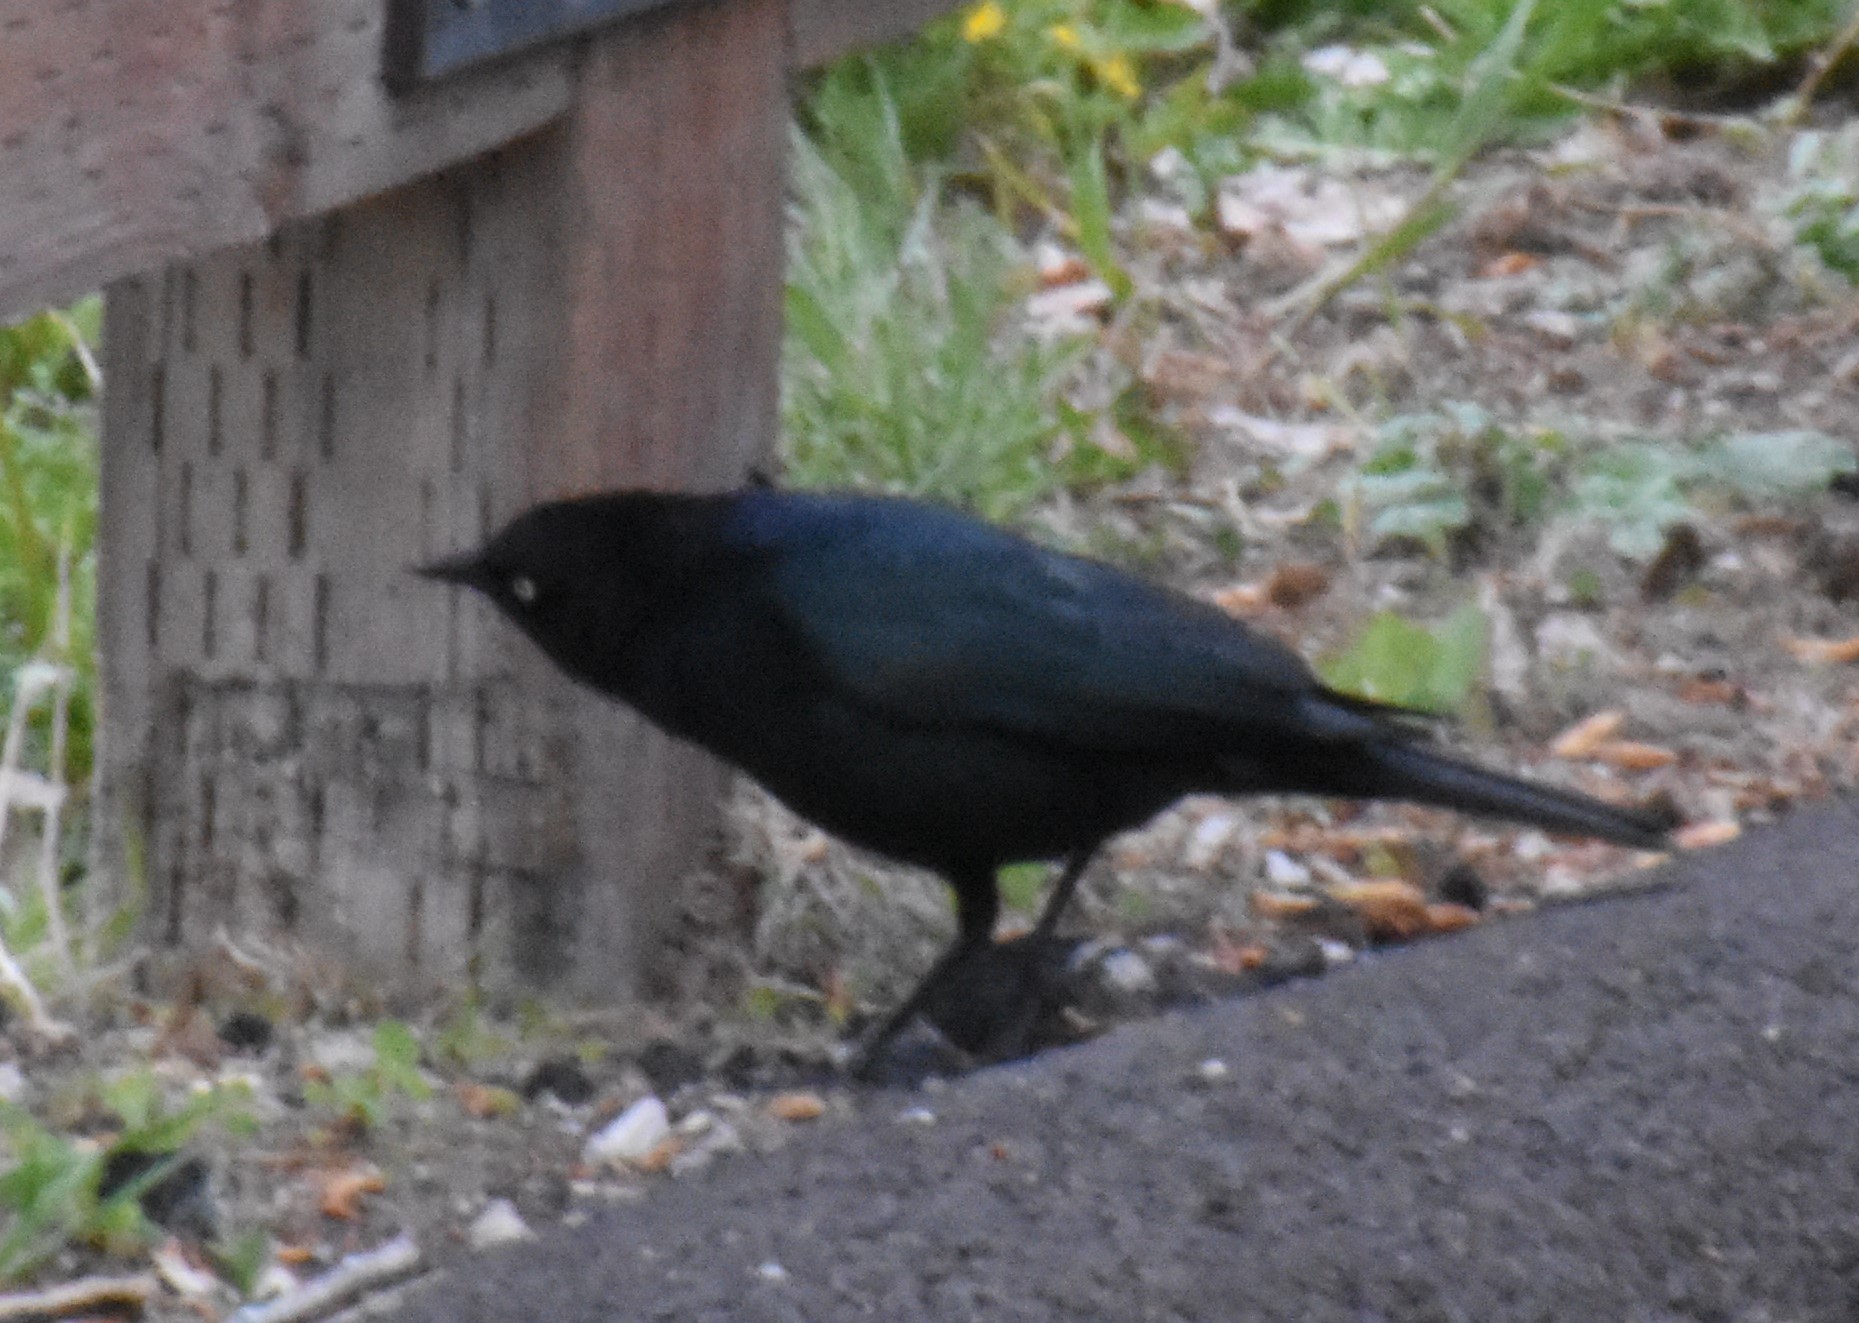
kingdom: Animalia
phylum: Chordata
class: Aves
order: Passeriformes
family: Icteridae
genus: Euphagus
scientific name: Euphagus cyanocephalus
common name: Brewer's blackbird
